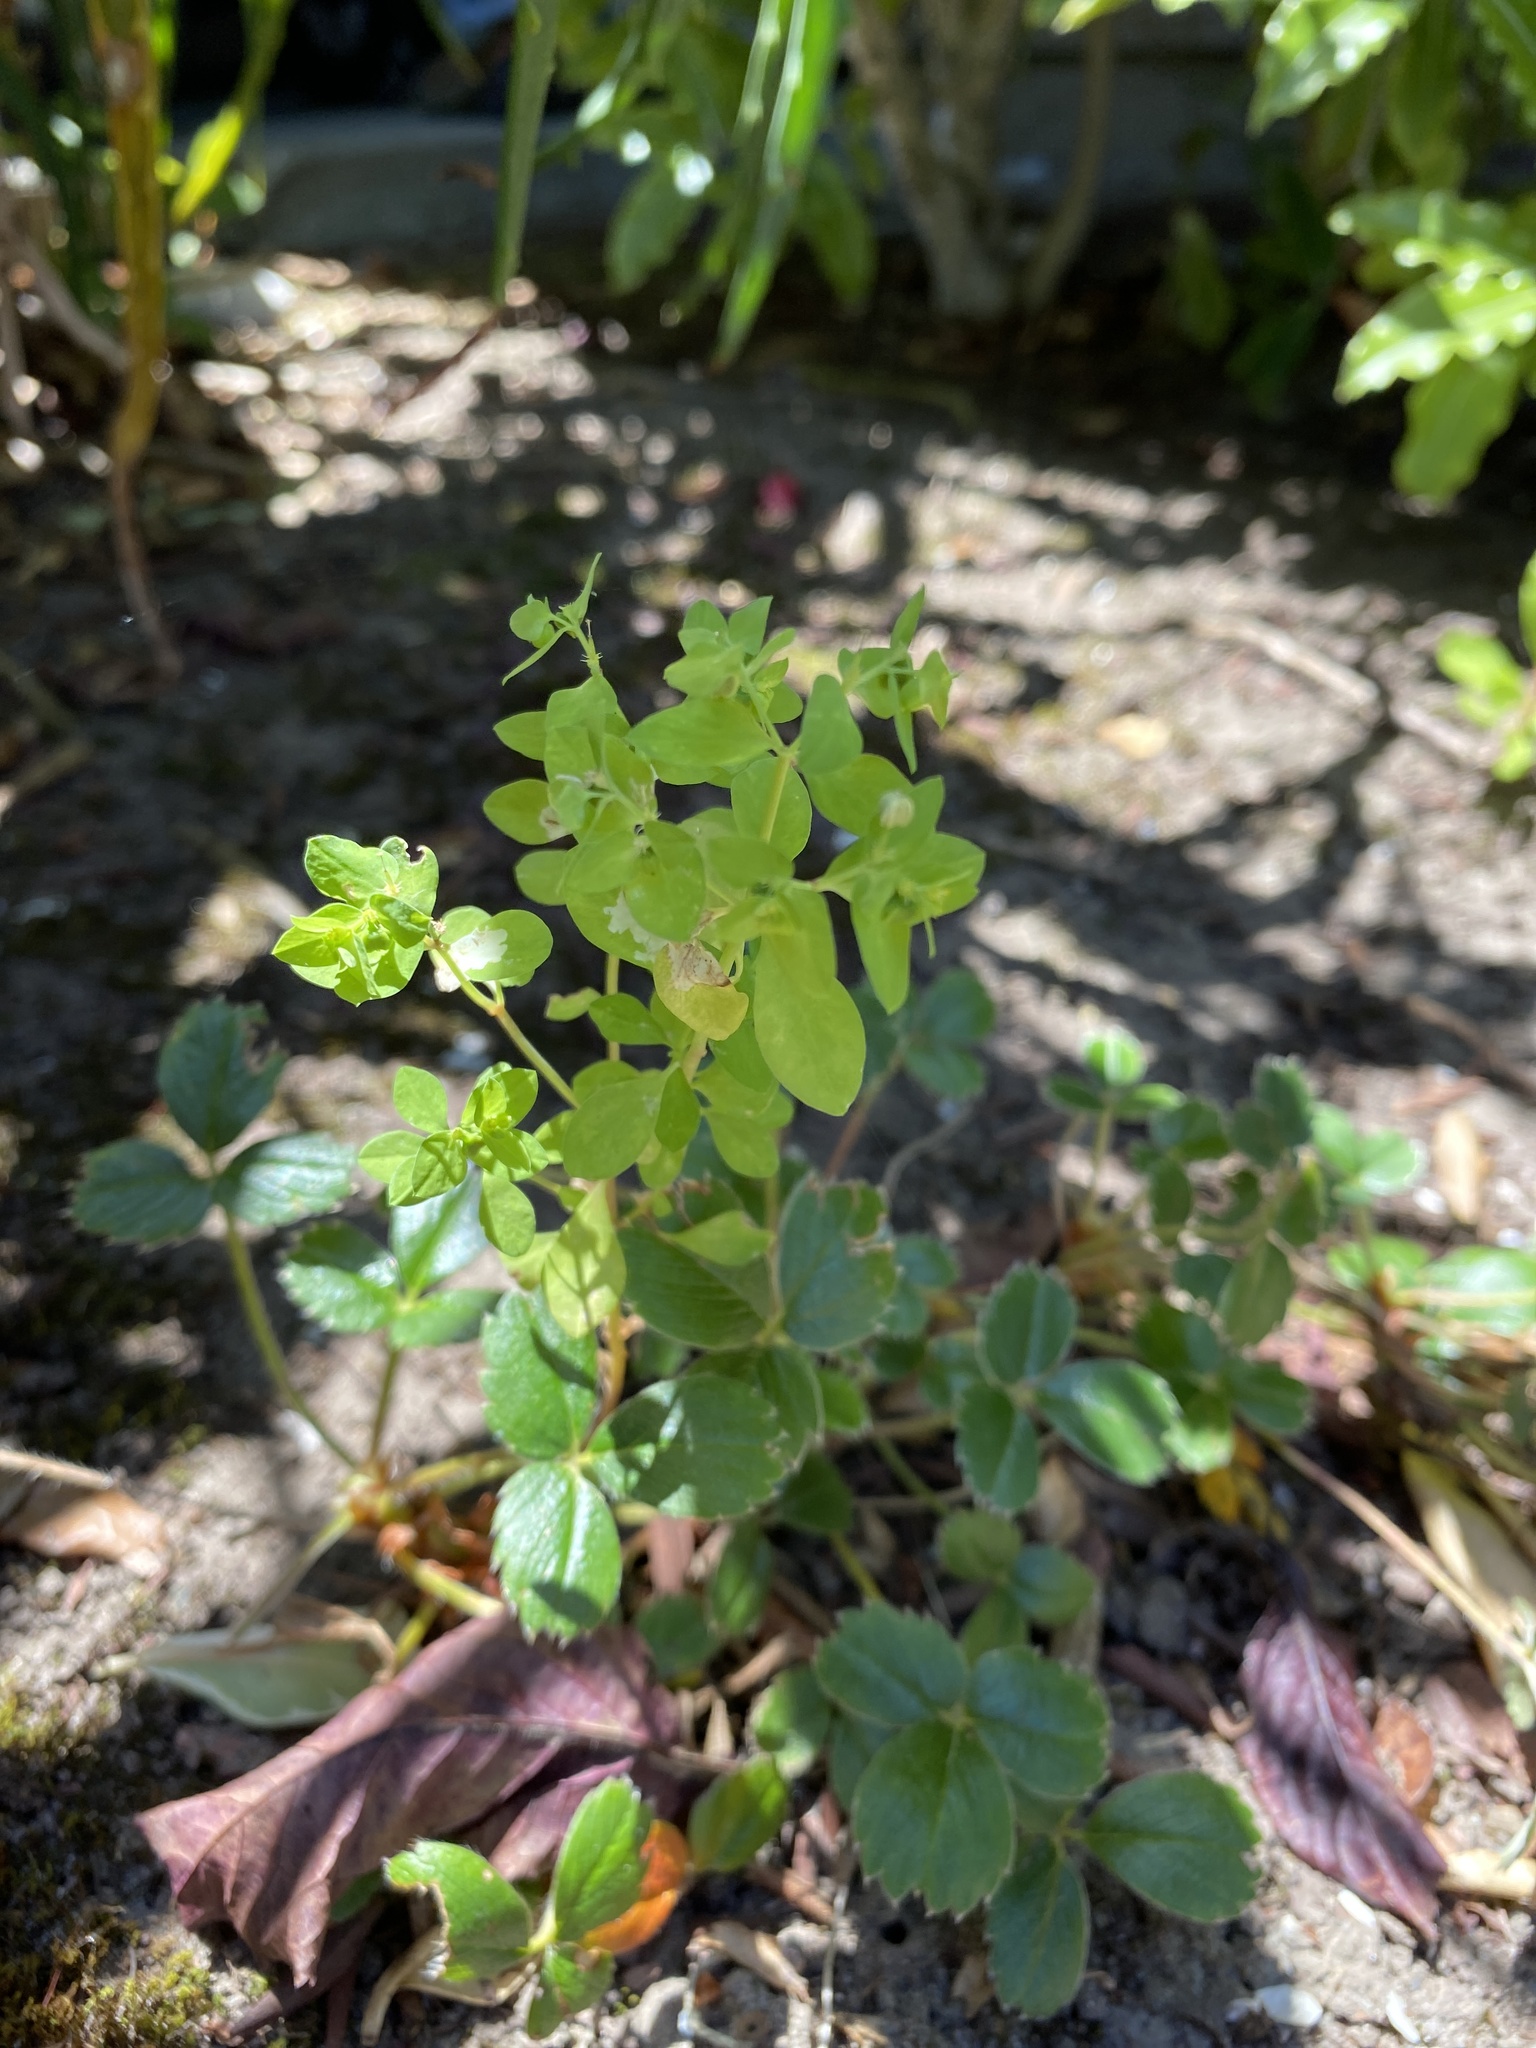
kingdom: Plantae
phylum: Tracheophyta
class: Magnoliopsida
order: Malpighiales
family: Euphorbiaceae
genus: Euphorbia
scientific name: Euphorbia peplus
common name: Petty spurge
